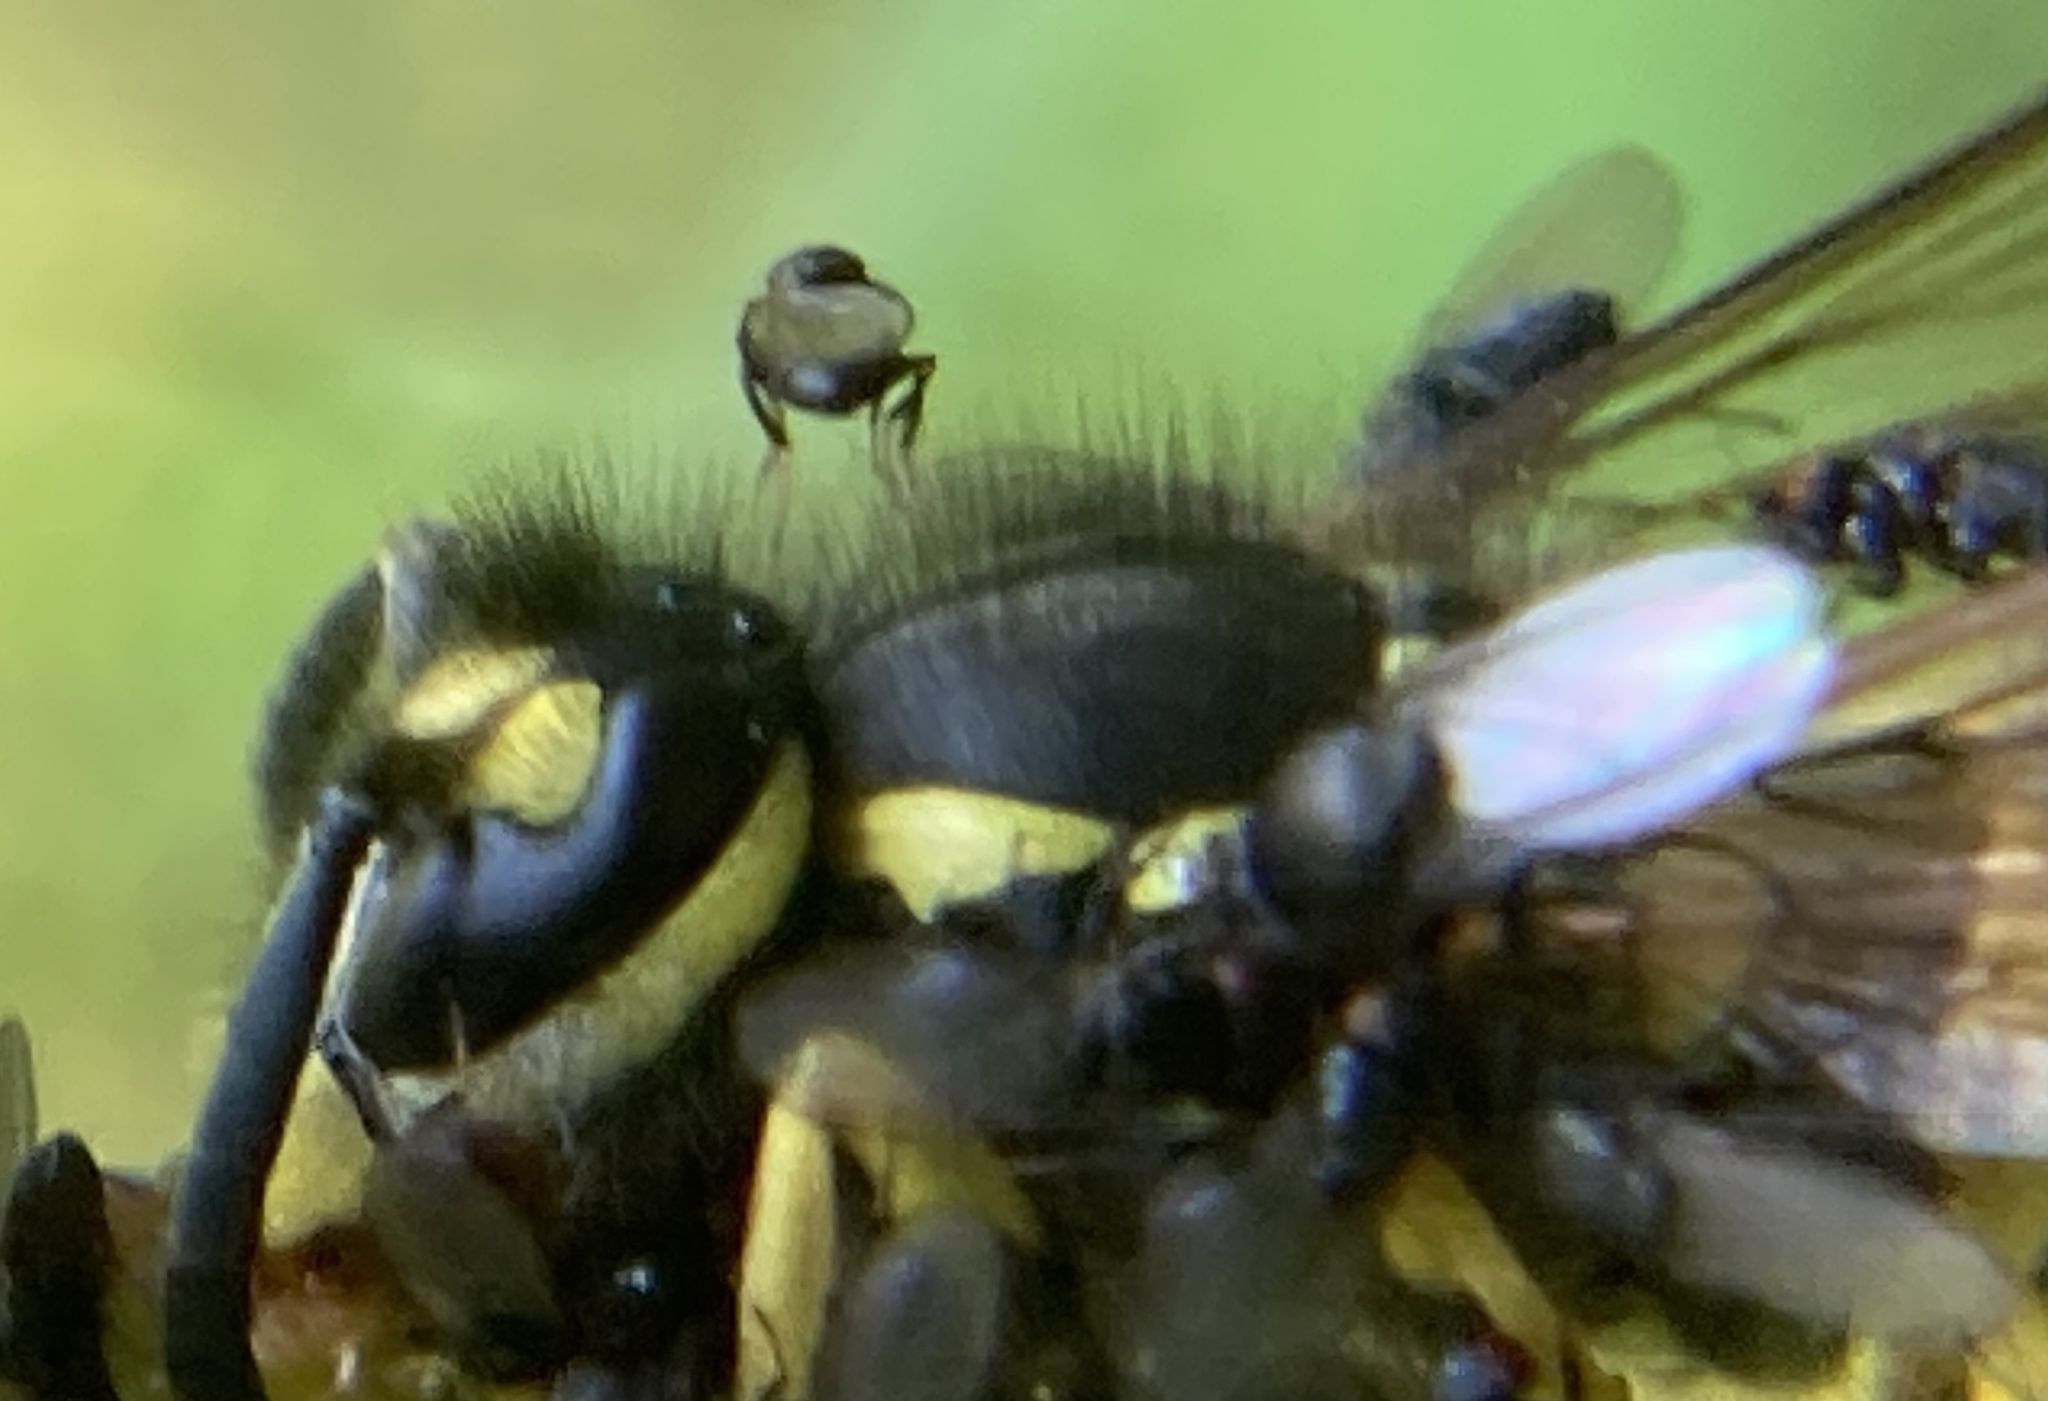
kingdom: Animalia
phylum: Arthropoda
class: Insecta
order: Hymenoptera
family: Vespidae
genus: Vespula
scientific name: Vespula germanica
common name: German wasp
